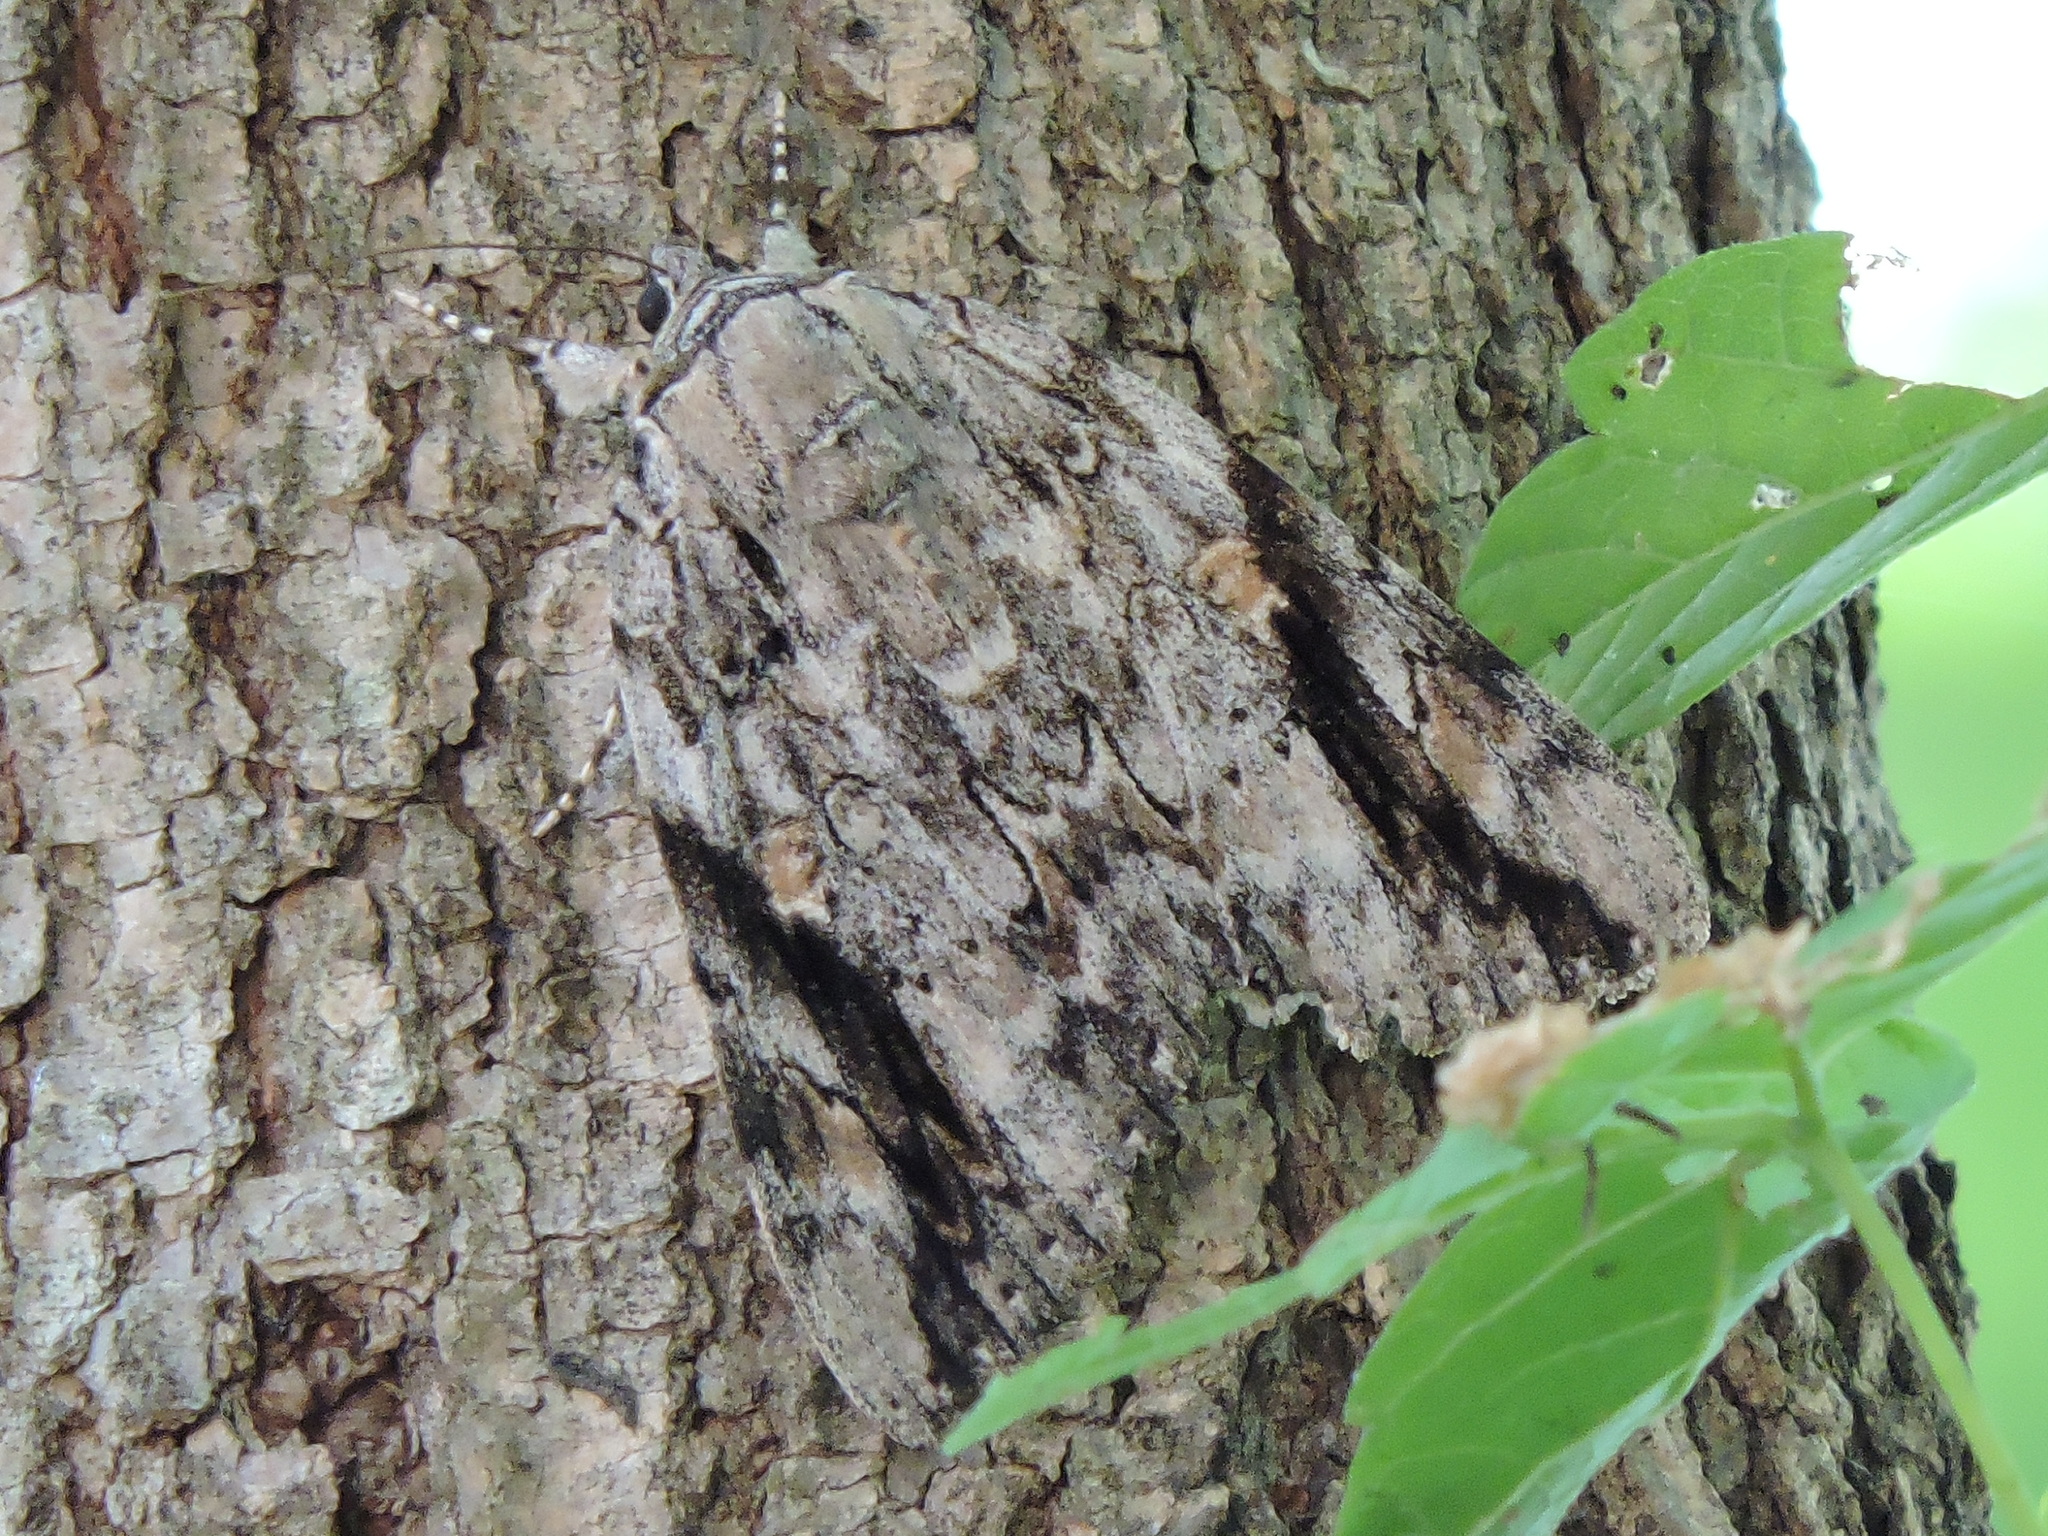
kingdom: Animalia
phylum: Arthropoda
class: Insecta
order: Lepidoptera
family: Erebidae
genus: Catocala
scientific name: Catocala maestosa
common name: Sad underwing
